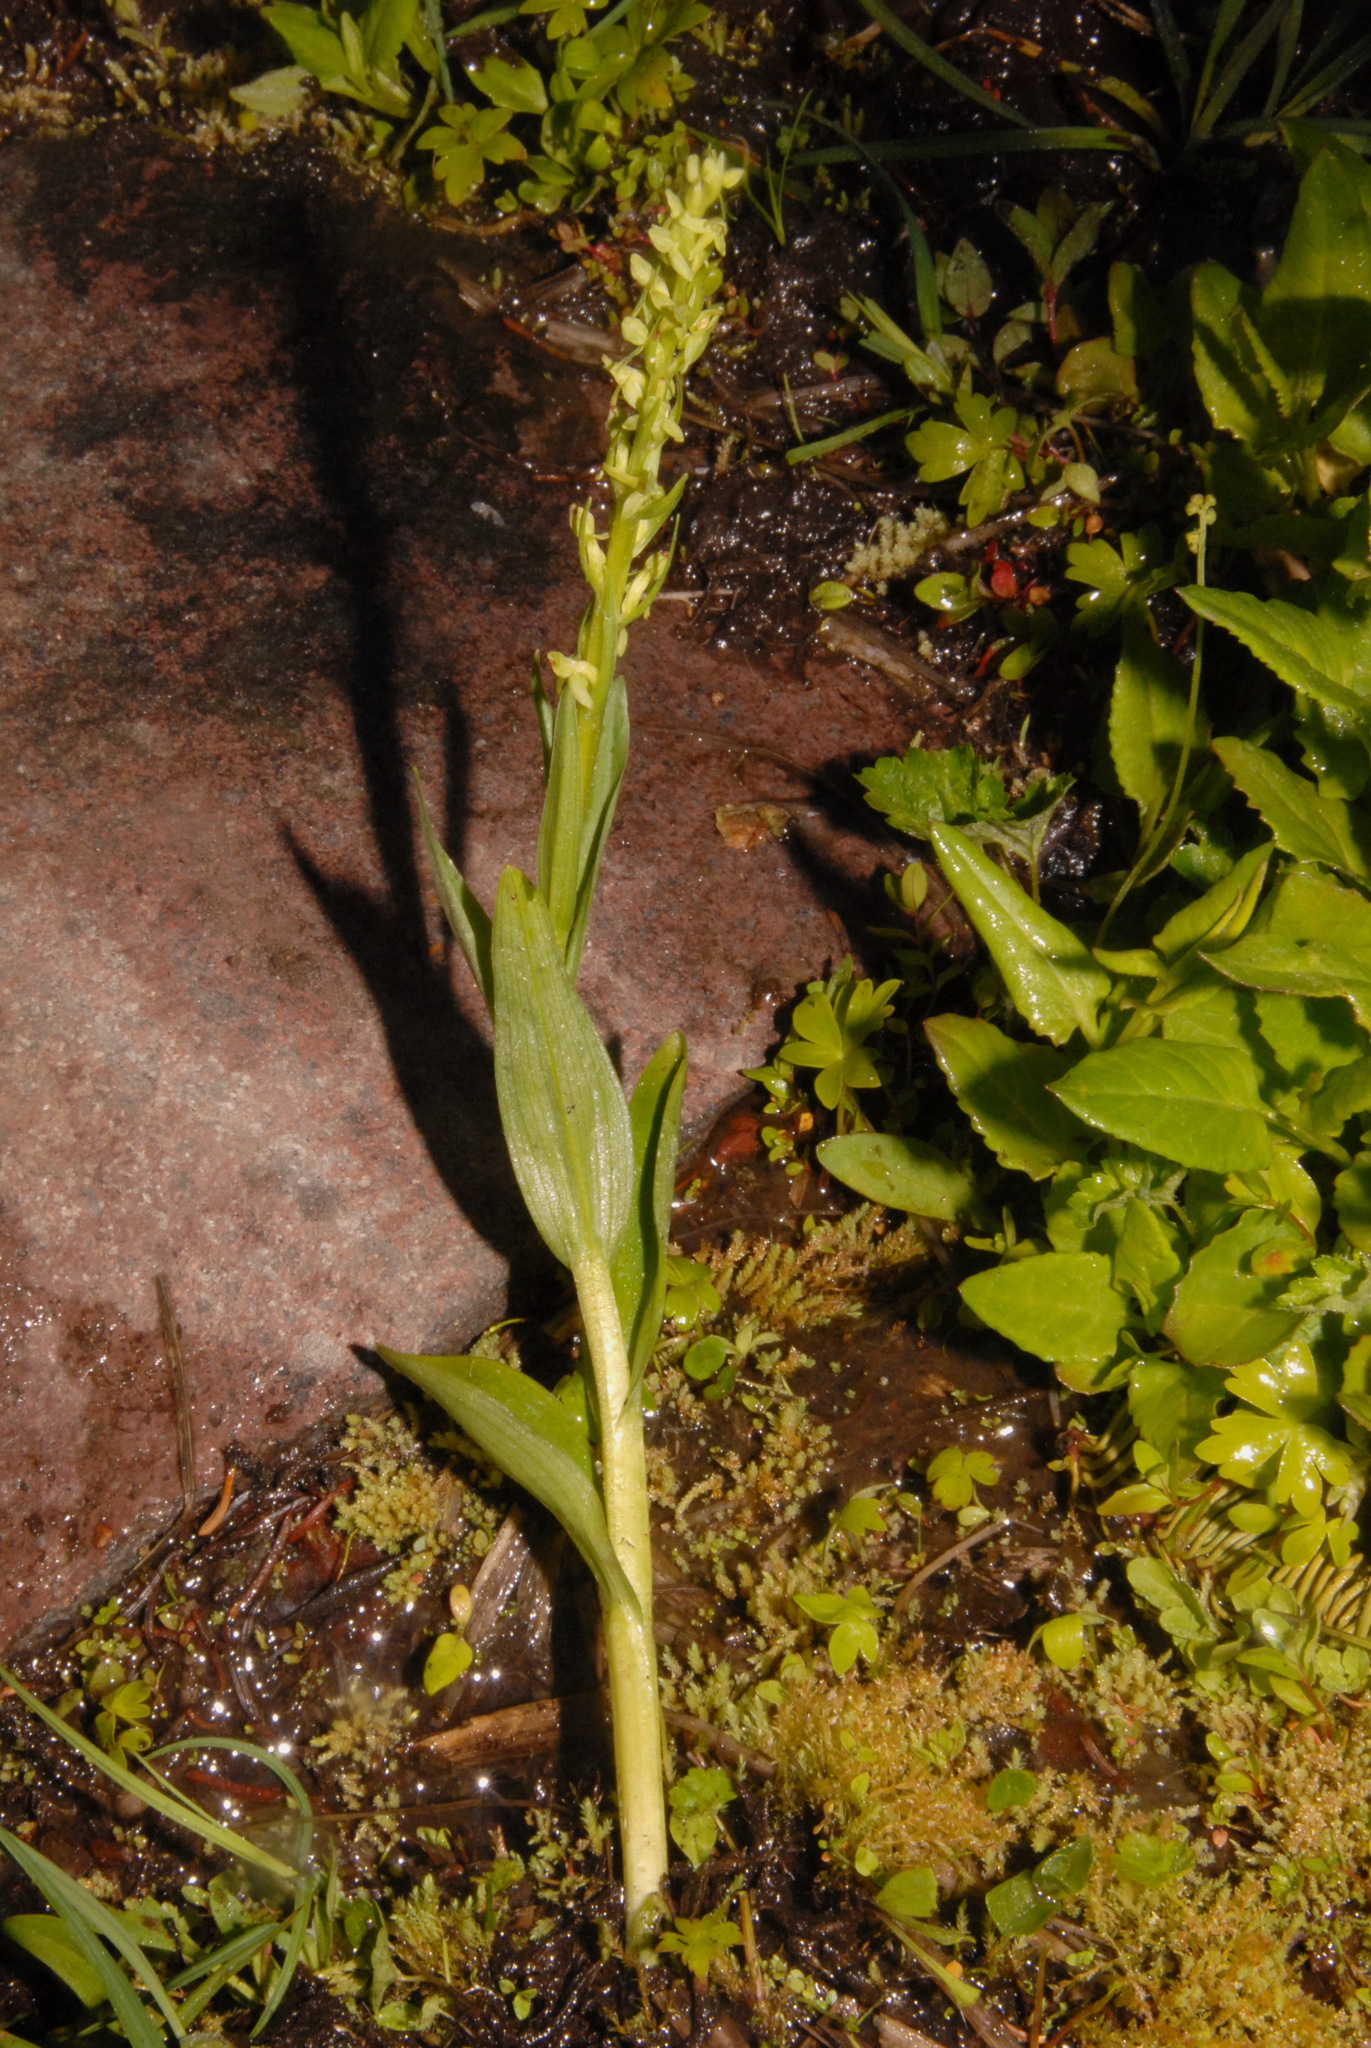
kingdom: Plantae
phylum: Tracheophyta
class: Liliopsida
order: Asparagales
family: Orchidaceae
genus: Platanthera
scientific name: Platanthera stricta
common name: Slender bog orchid
